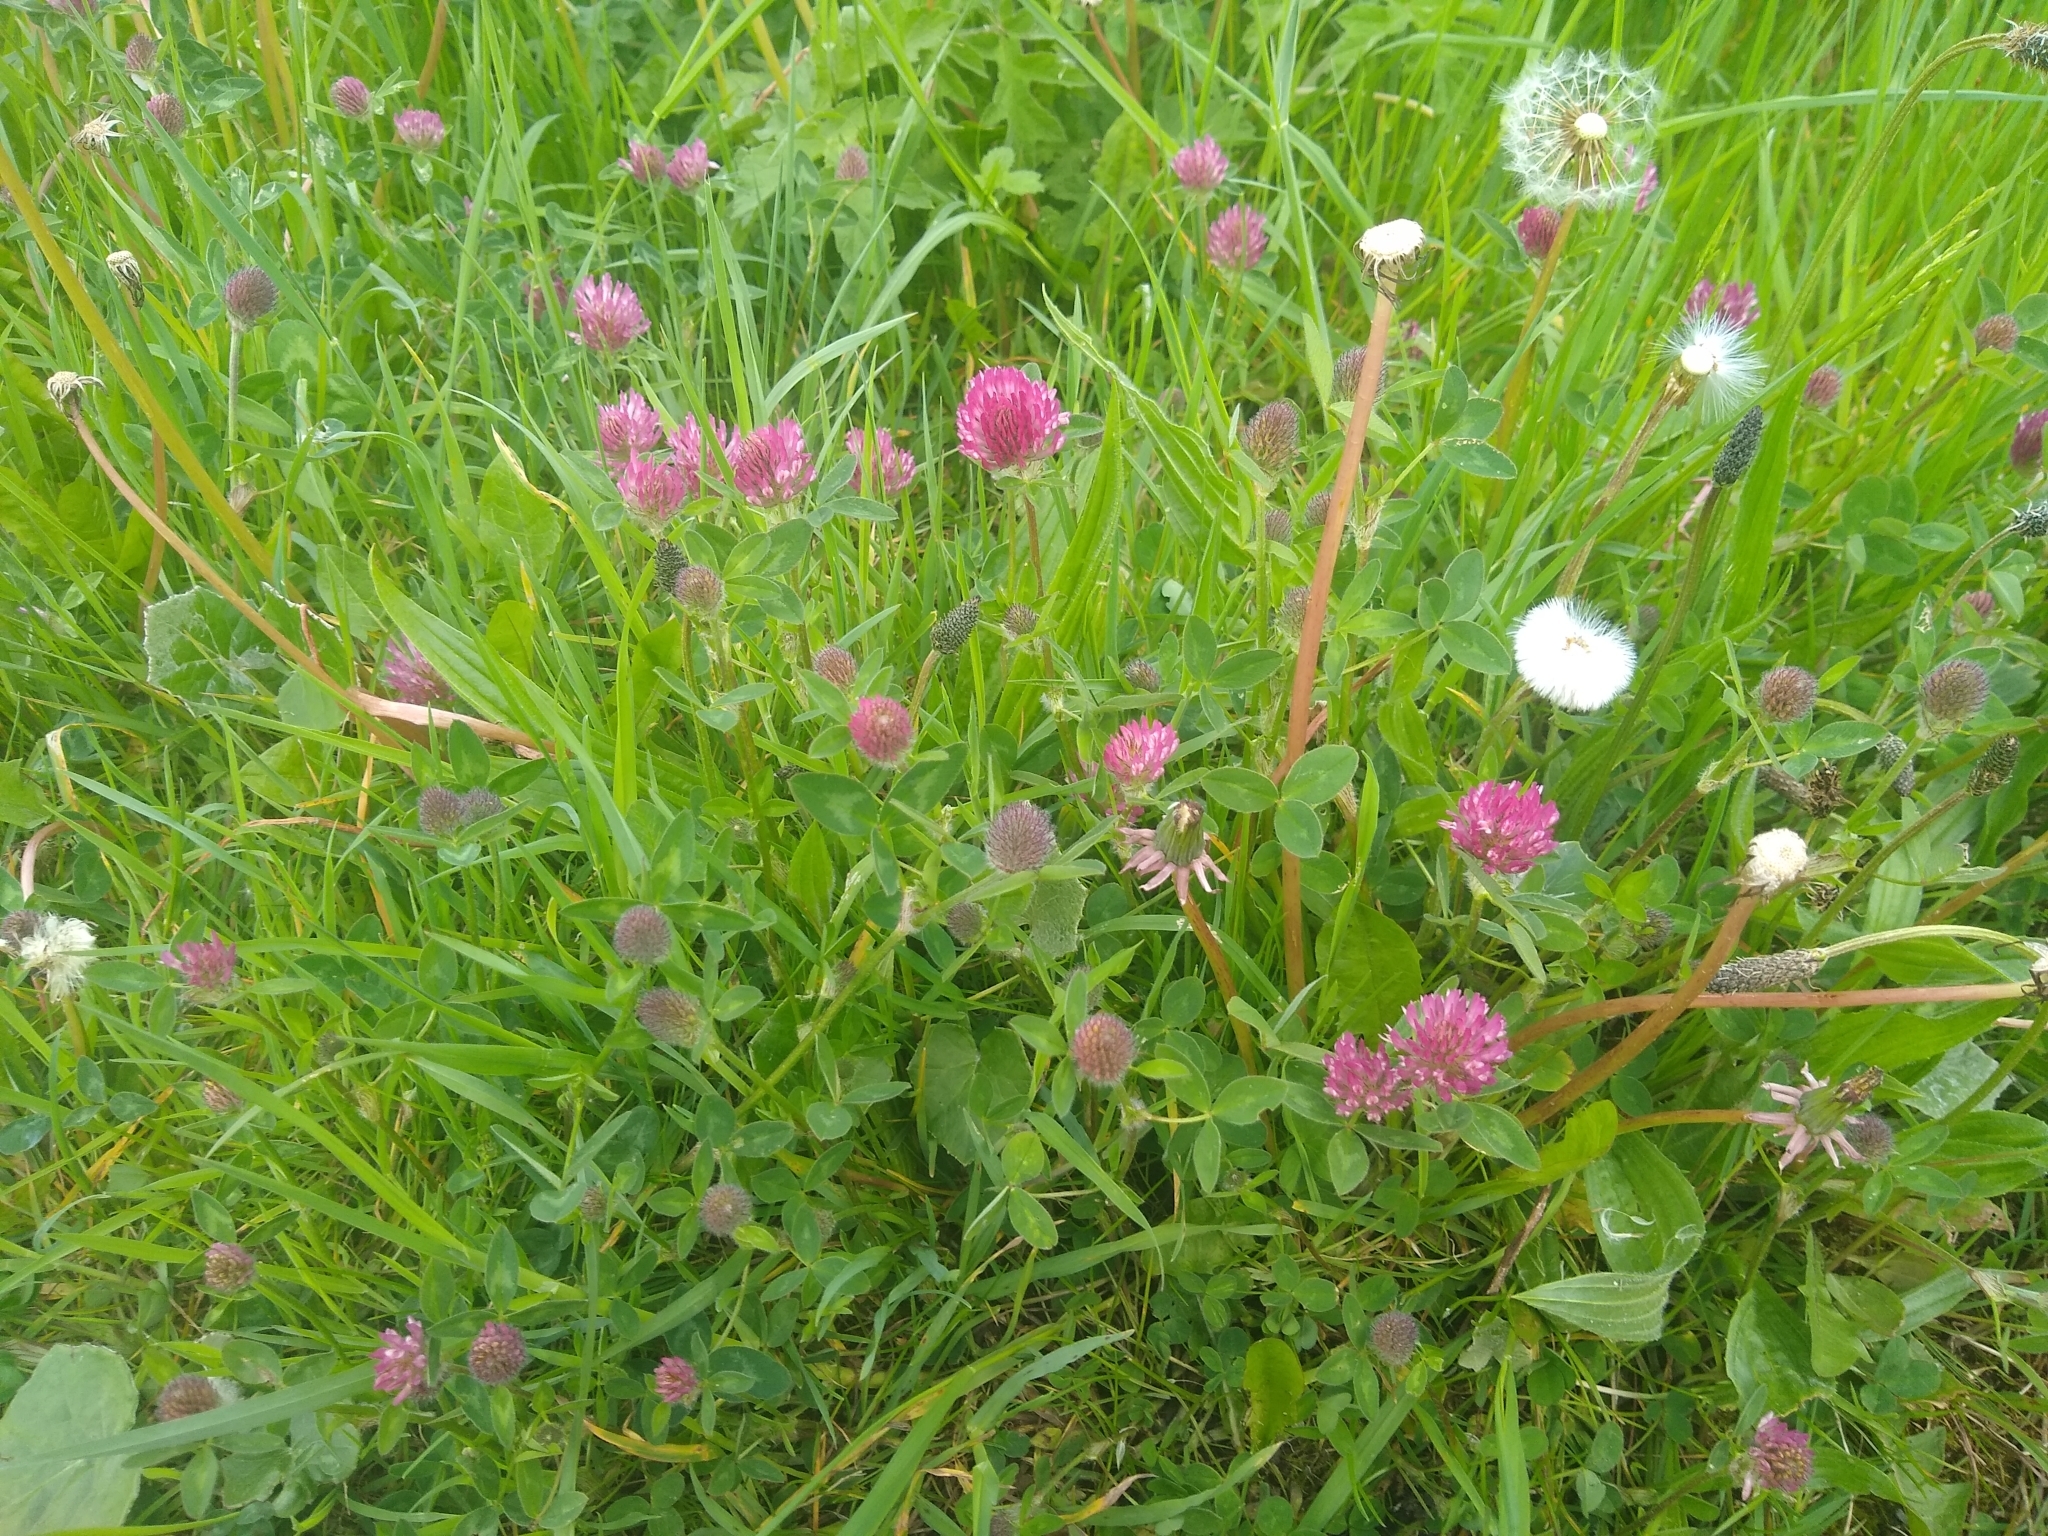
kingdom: Plantae
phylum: Tracheophyta
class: Magnoliopsida
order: Fabales
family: Fabaceae
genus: Trifolium
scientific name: Trifolium pratense
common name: Red clover
